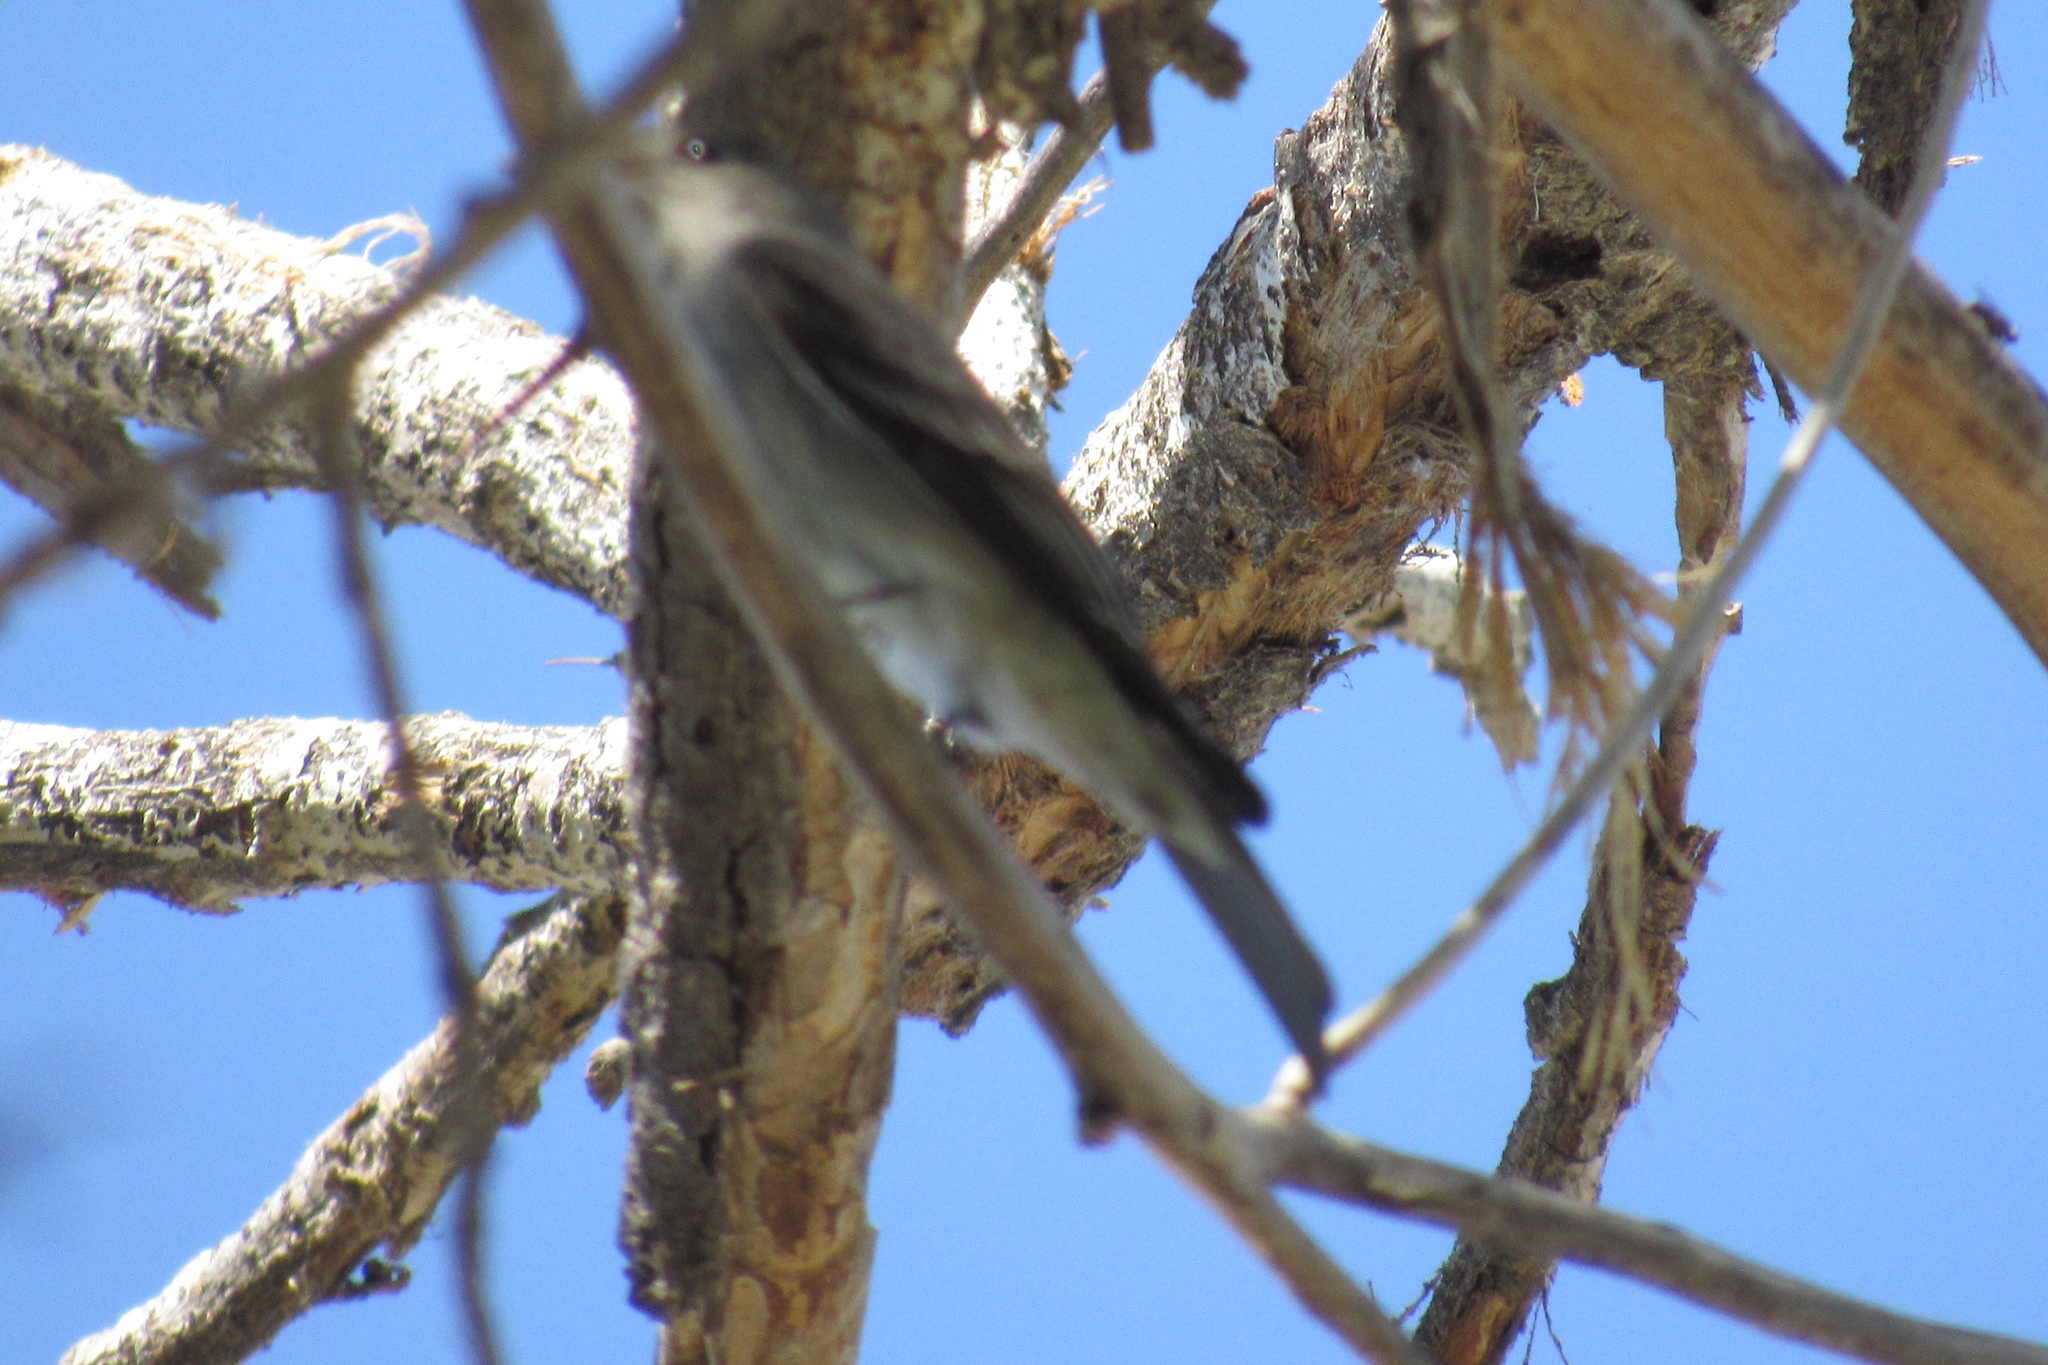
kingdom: Animalia
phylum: Chordata
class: Aves
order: Passeriformes
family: Tyrannidae
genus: Contopus
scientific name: Contopus sordidulus
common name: Western wood-pewee
